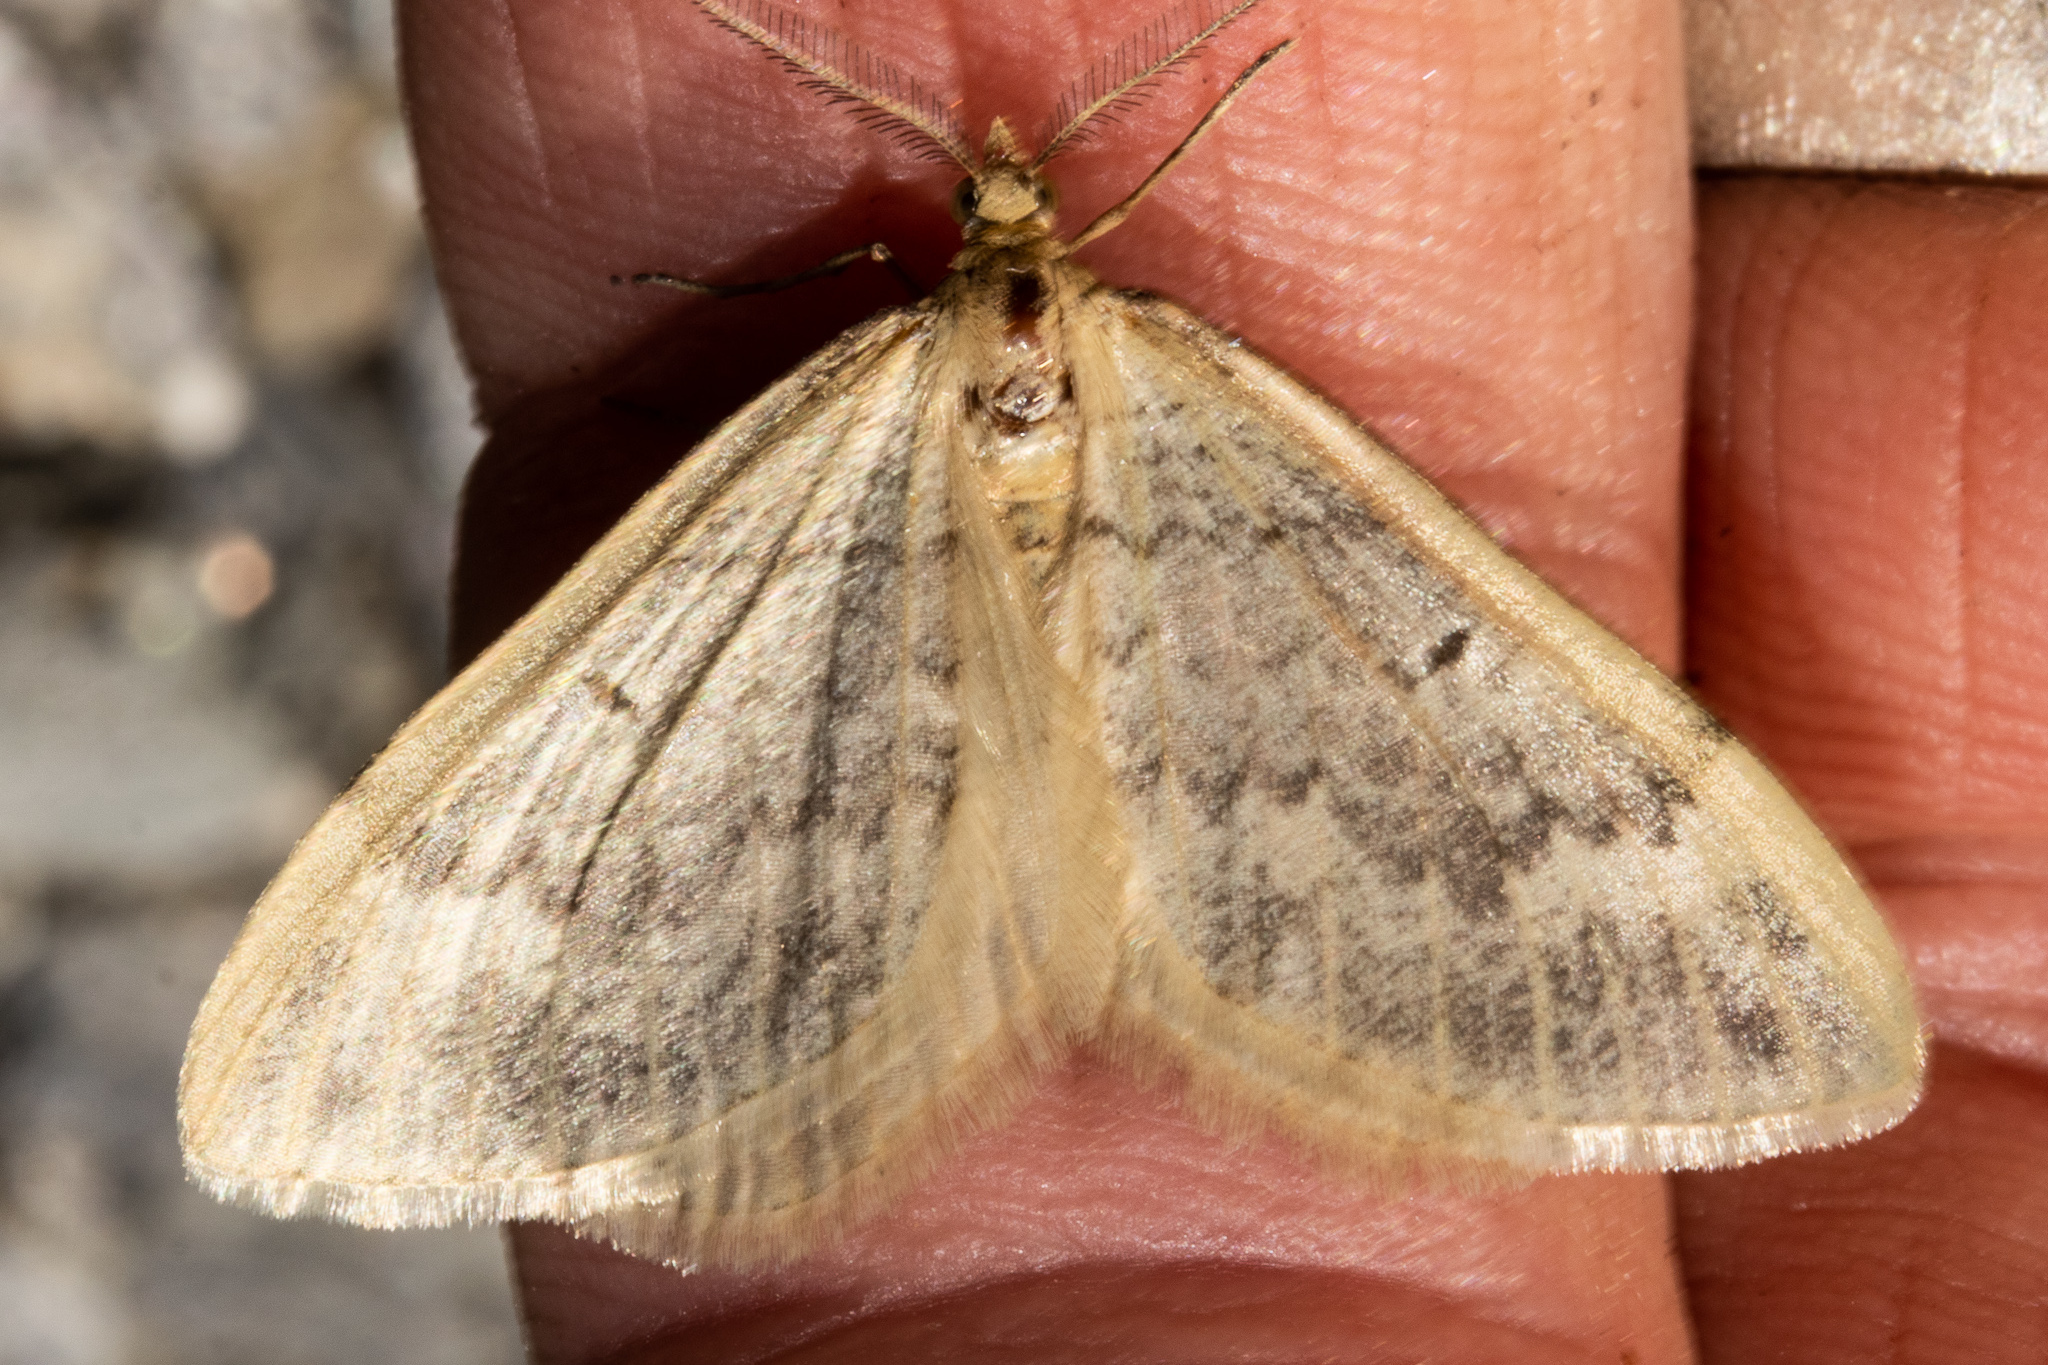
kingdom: Animalia
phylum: Arthropoda
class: Insecta
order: Lepidoptera
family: Geometridae
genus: Asaphodes
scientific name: Asaphodes helias
